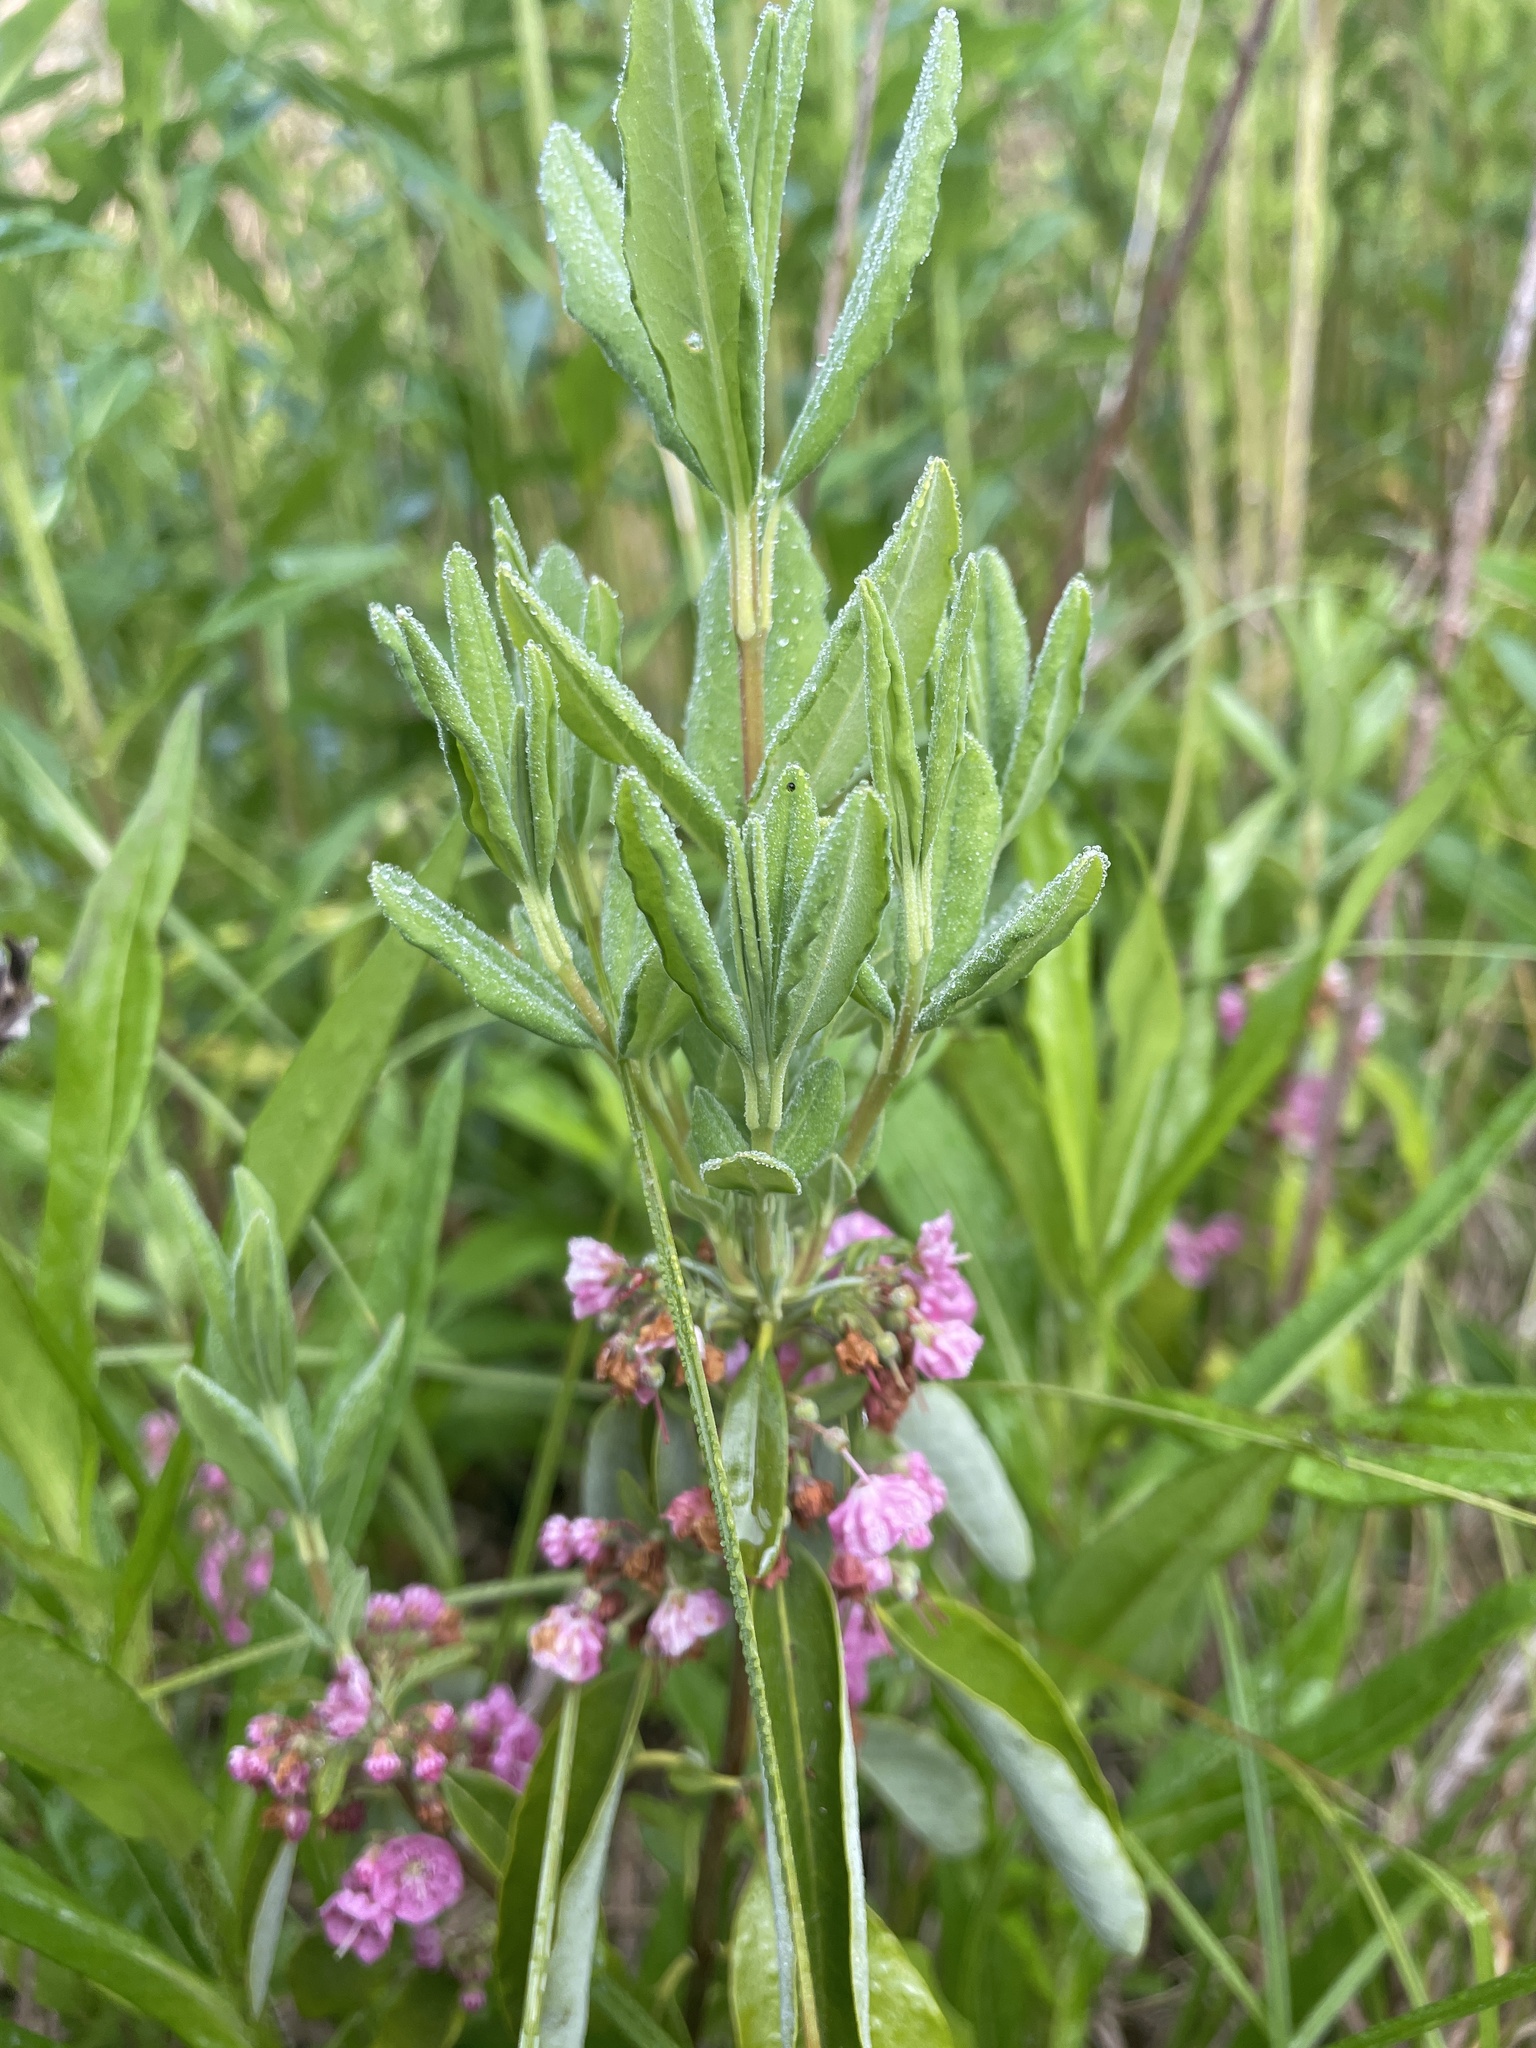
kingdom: Plantae
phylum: Tracheophyta
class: Magnoliopsida
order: Ericales
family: Ericaceae
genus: Kalmia
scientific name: Kalmia angustifolia
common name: Sheep-laurel
